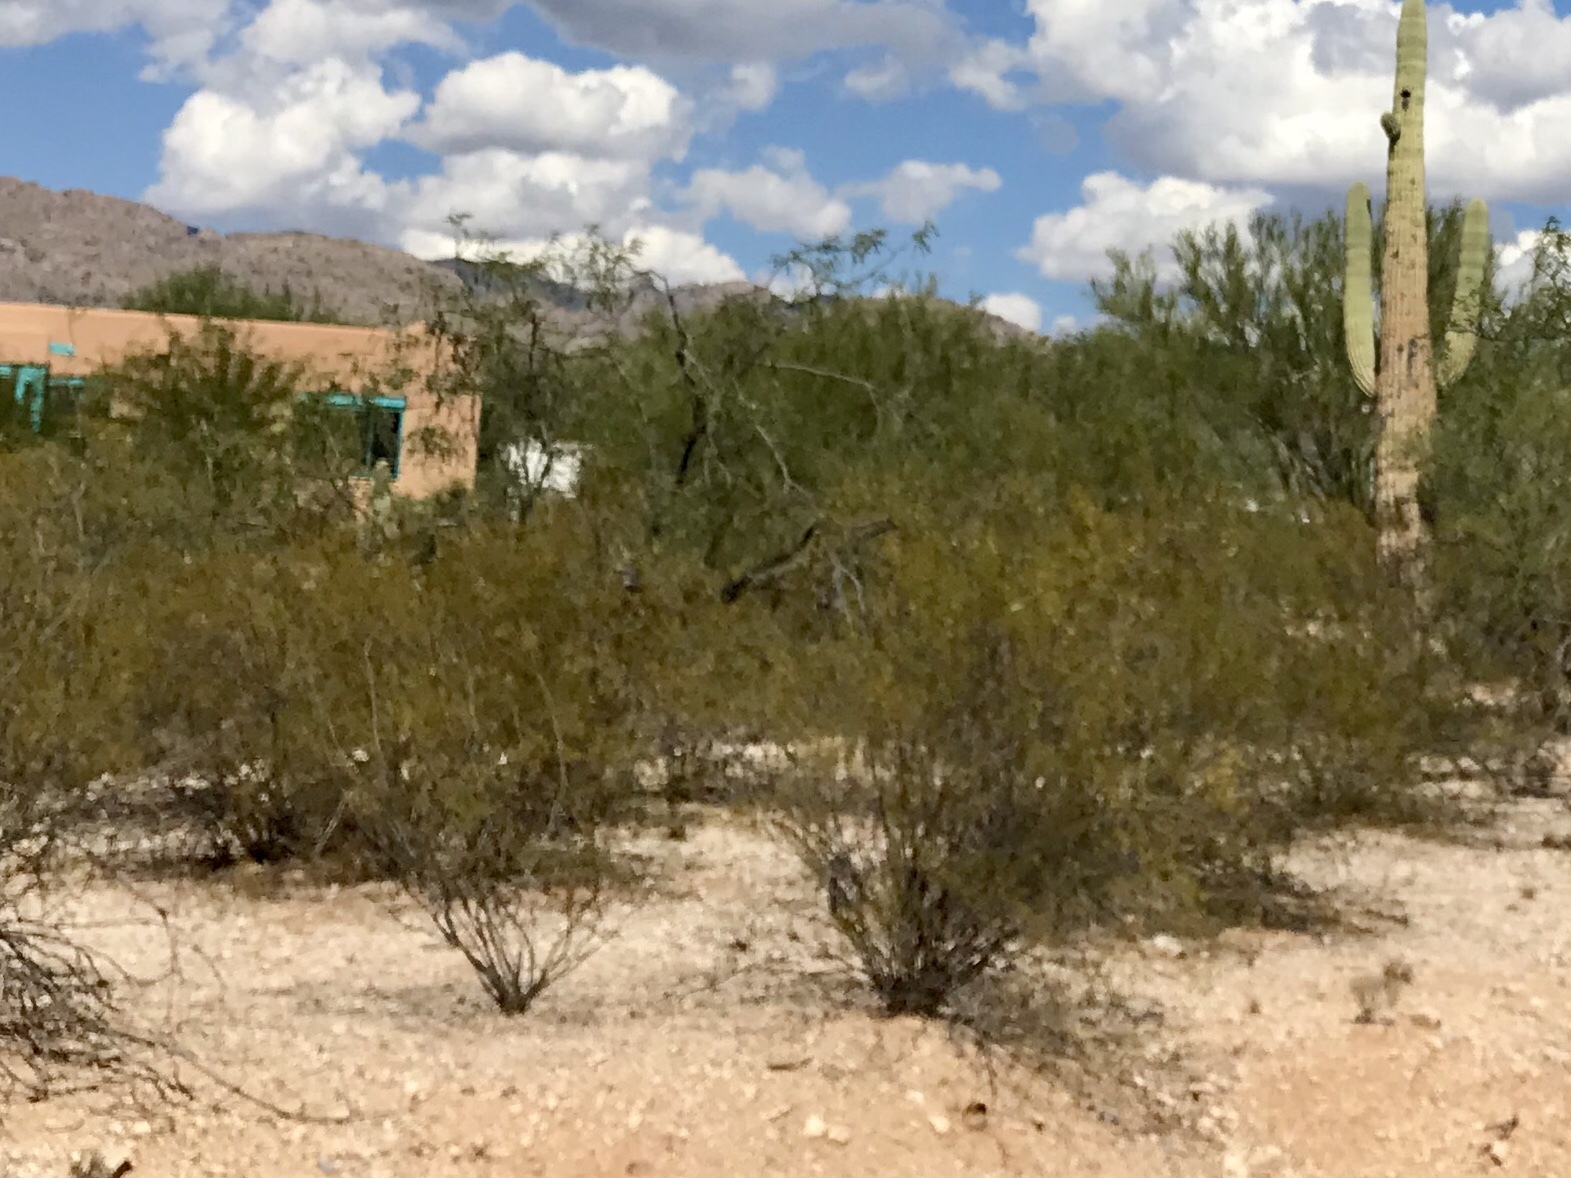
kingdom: Plantae
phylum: Tracheophyta
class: Magnoliopsida
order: Zygophyllales
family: Zygophyllaceae
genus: Larrea
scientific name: Larrea tridentata
